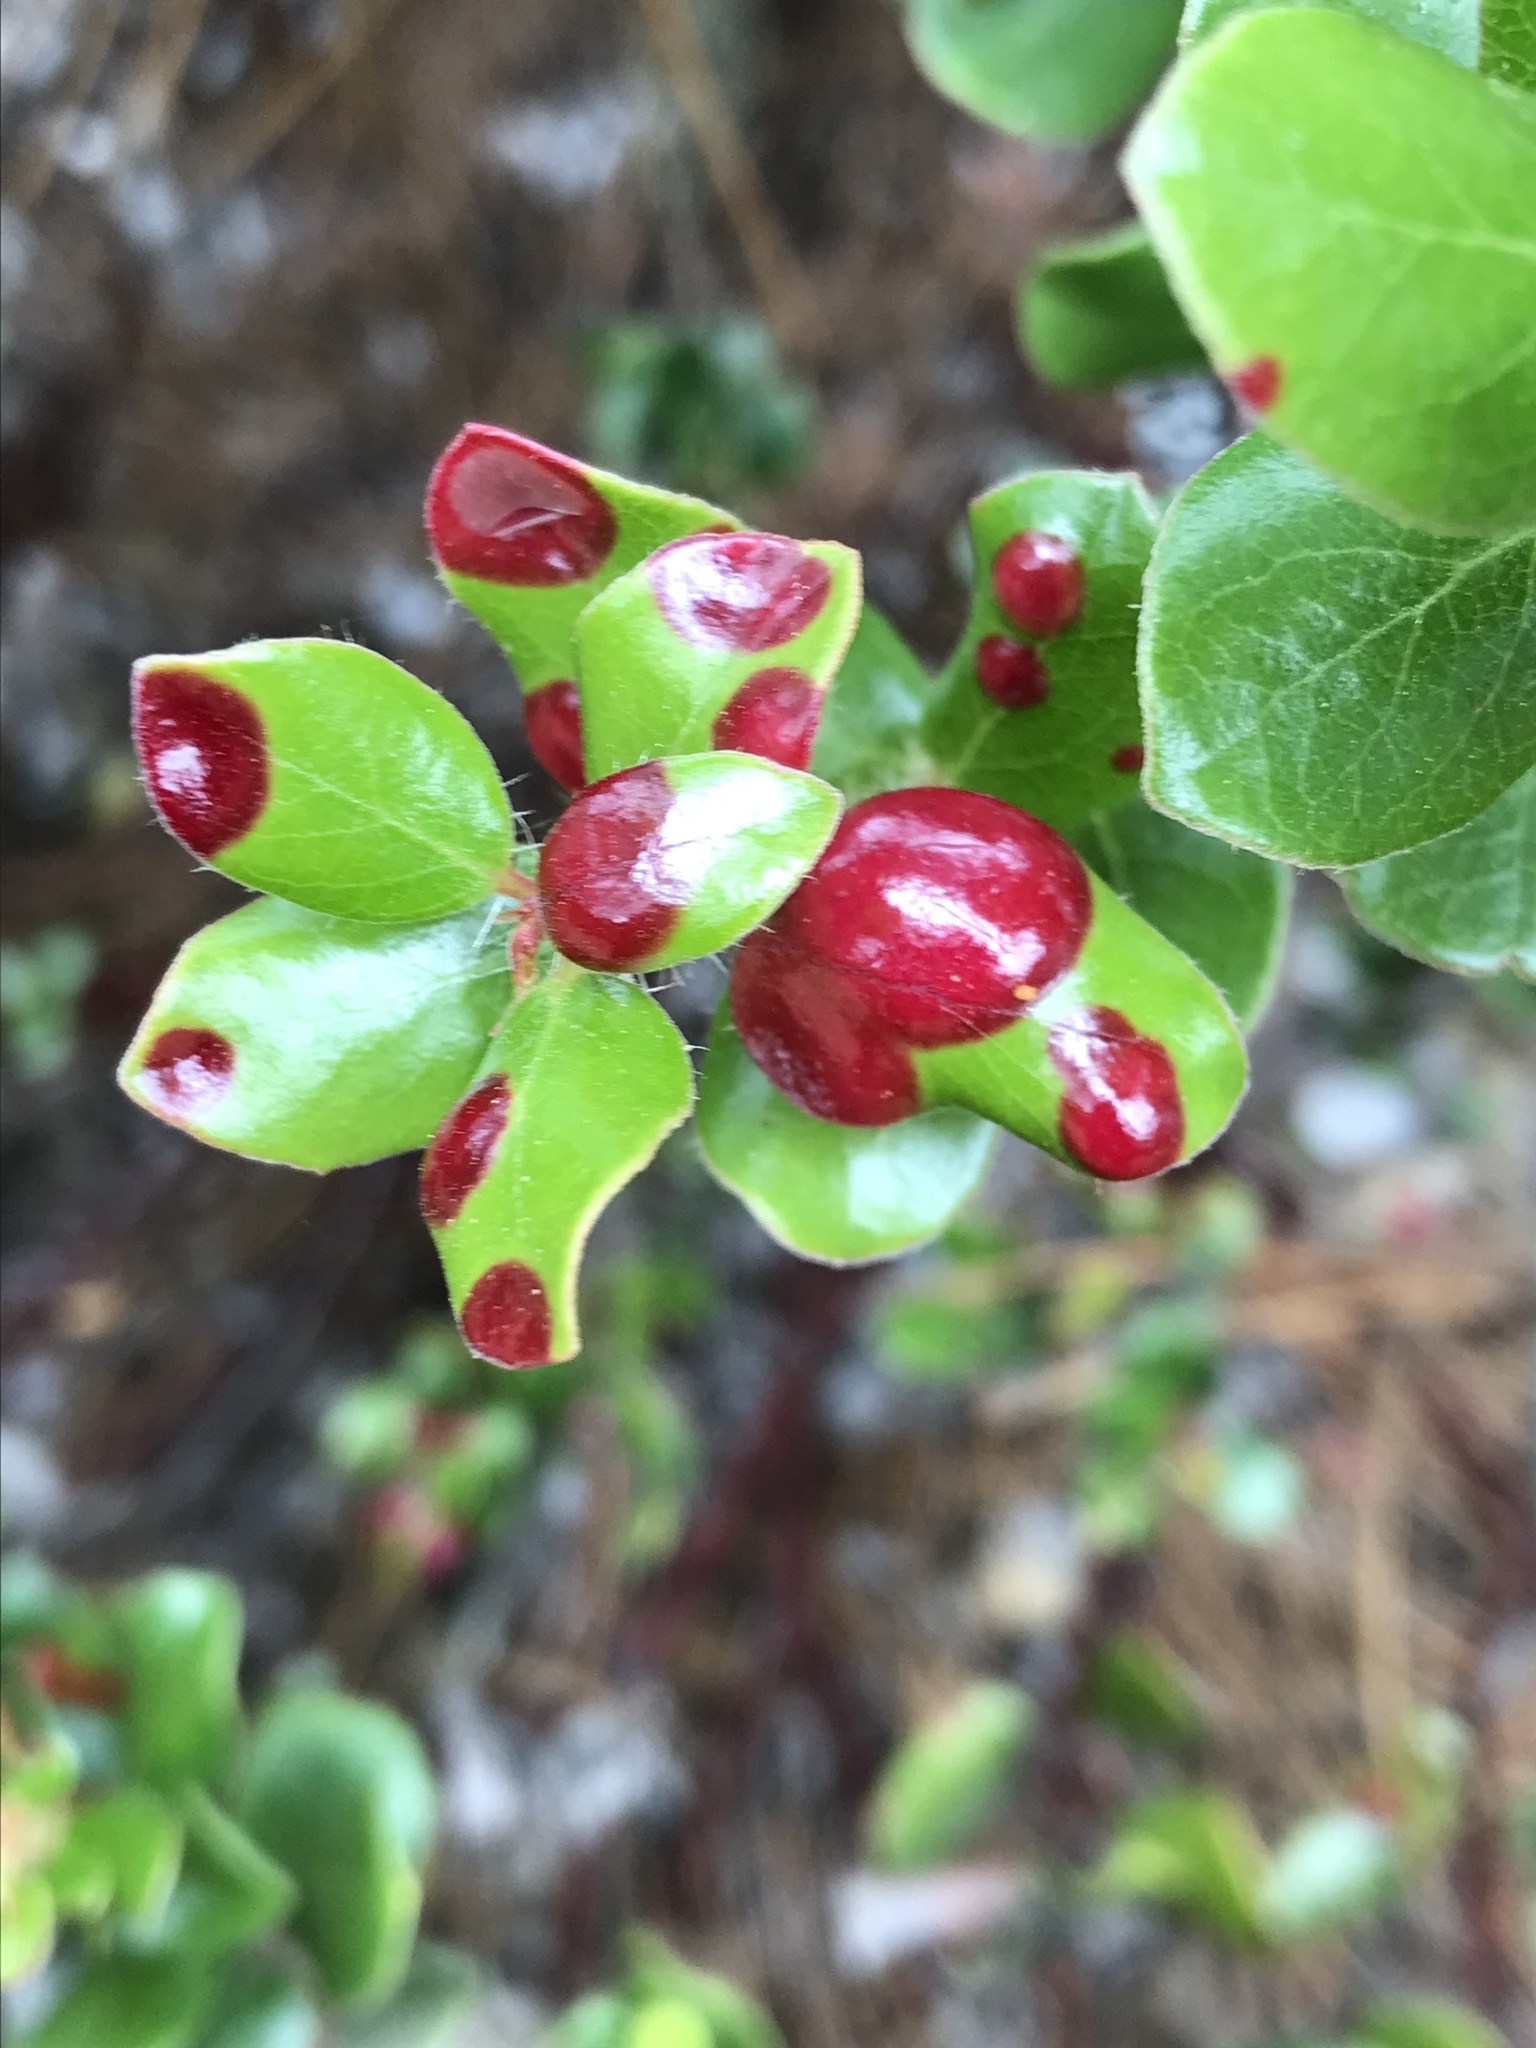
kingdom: Fungi
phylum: Basidiomycota
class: Exobasidiomycetes
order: Exobasidiales
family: Exobasidiaceae
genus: Exobasidium
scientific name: Exobasidium arctostaphyli
